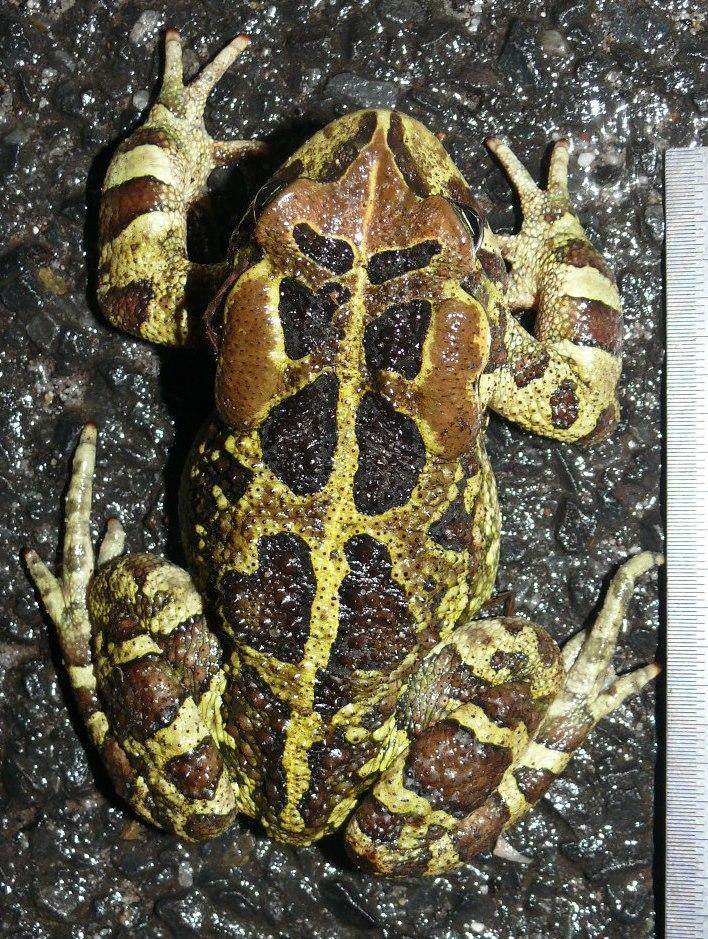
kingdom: Animalia
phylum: Chordata
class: Amphibia
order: Anura
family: Bufonidae
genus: Sclerophrys
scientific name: Sclerophrys pantherina
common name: Panther toad
